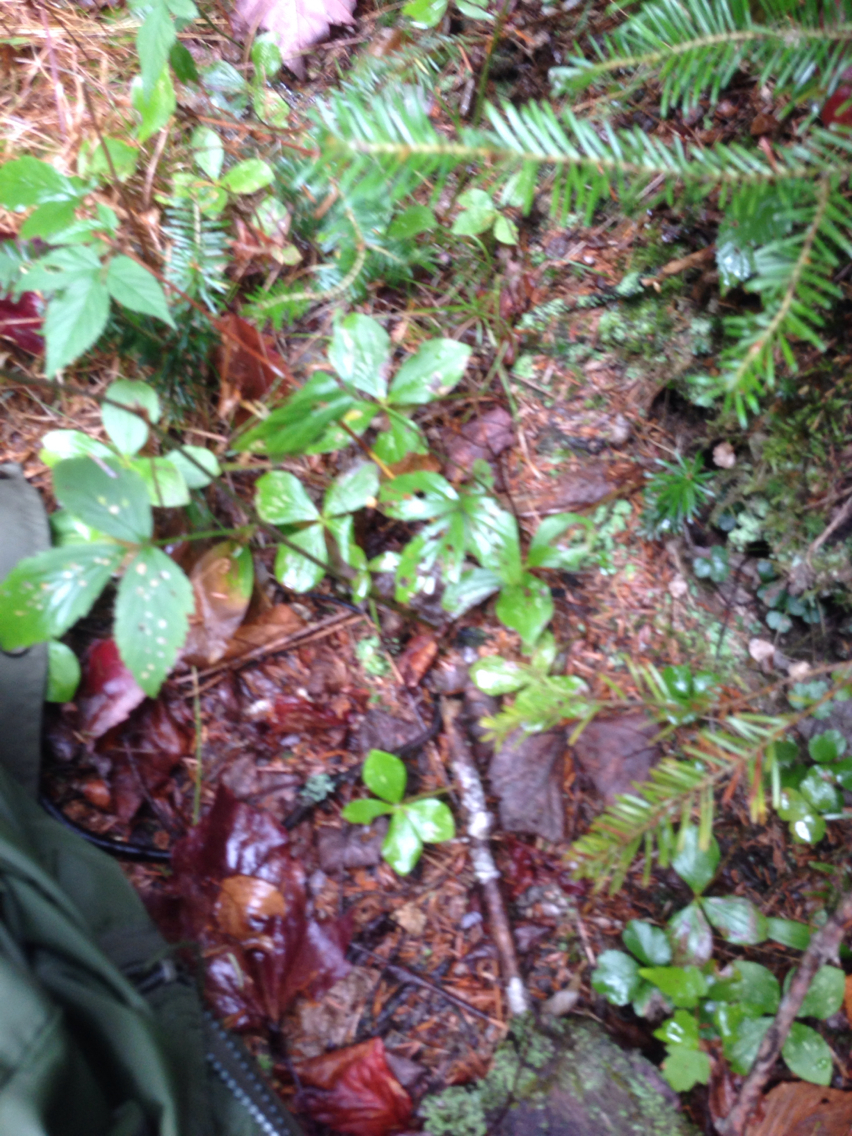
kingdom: Plantae
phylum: Tracheophyta
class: Magnoliopsida
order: Cornales
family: Cornaceae
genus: Cornus
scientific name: Cornus canadensis
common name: Creeping dogwood
